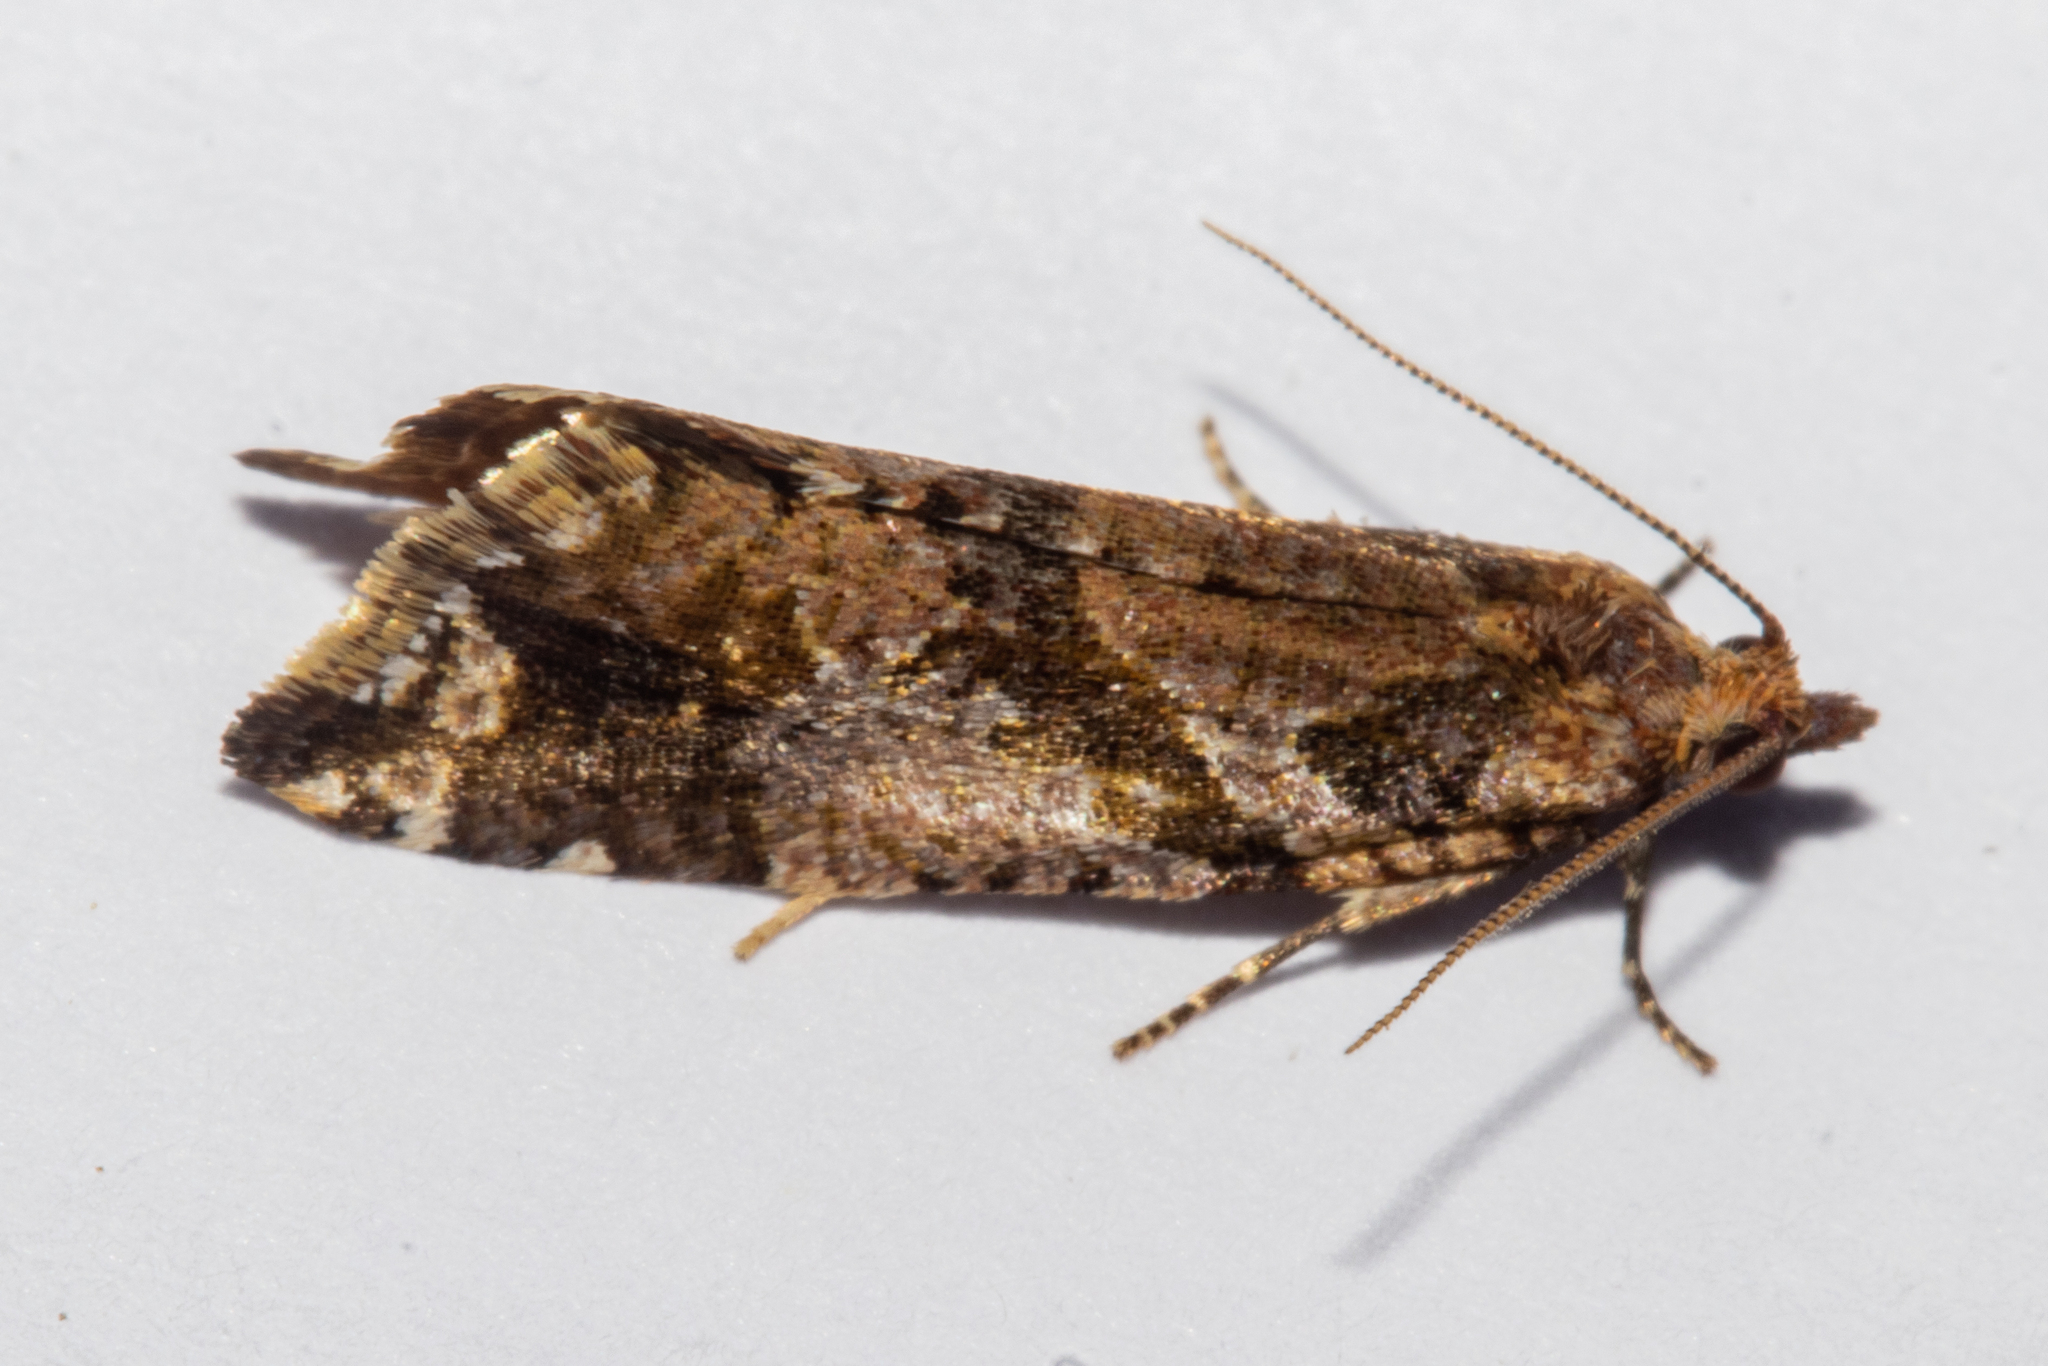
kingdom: Animalia
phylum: Arthropoda
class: Insecta
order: Lepidoptera
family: Tortricidae
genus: Pyrgotis
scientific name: Pyrgotis plagiatana
